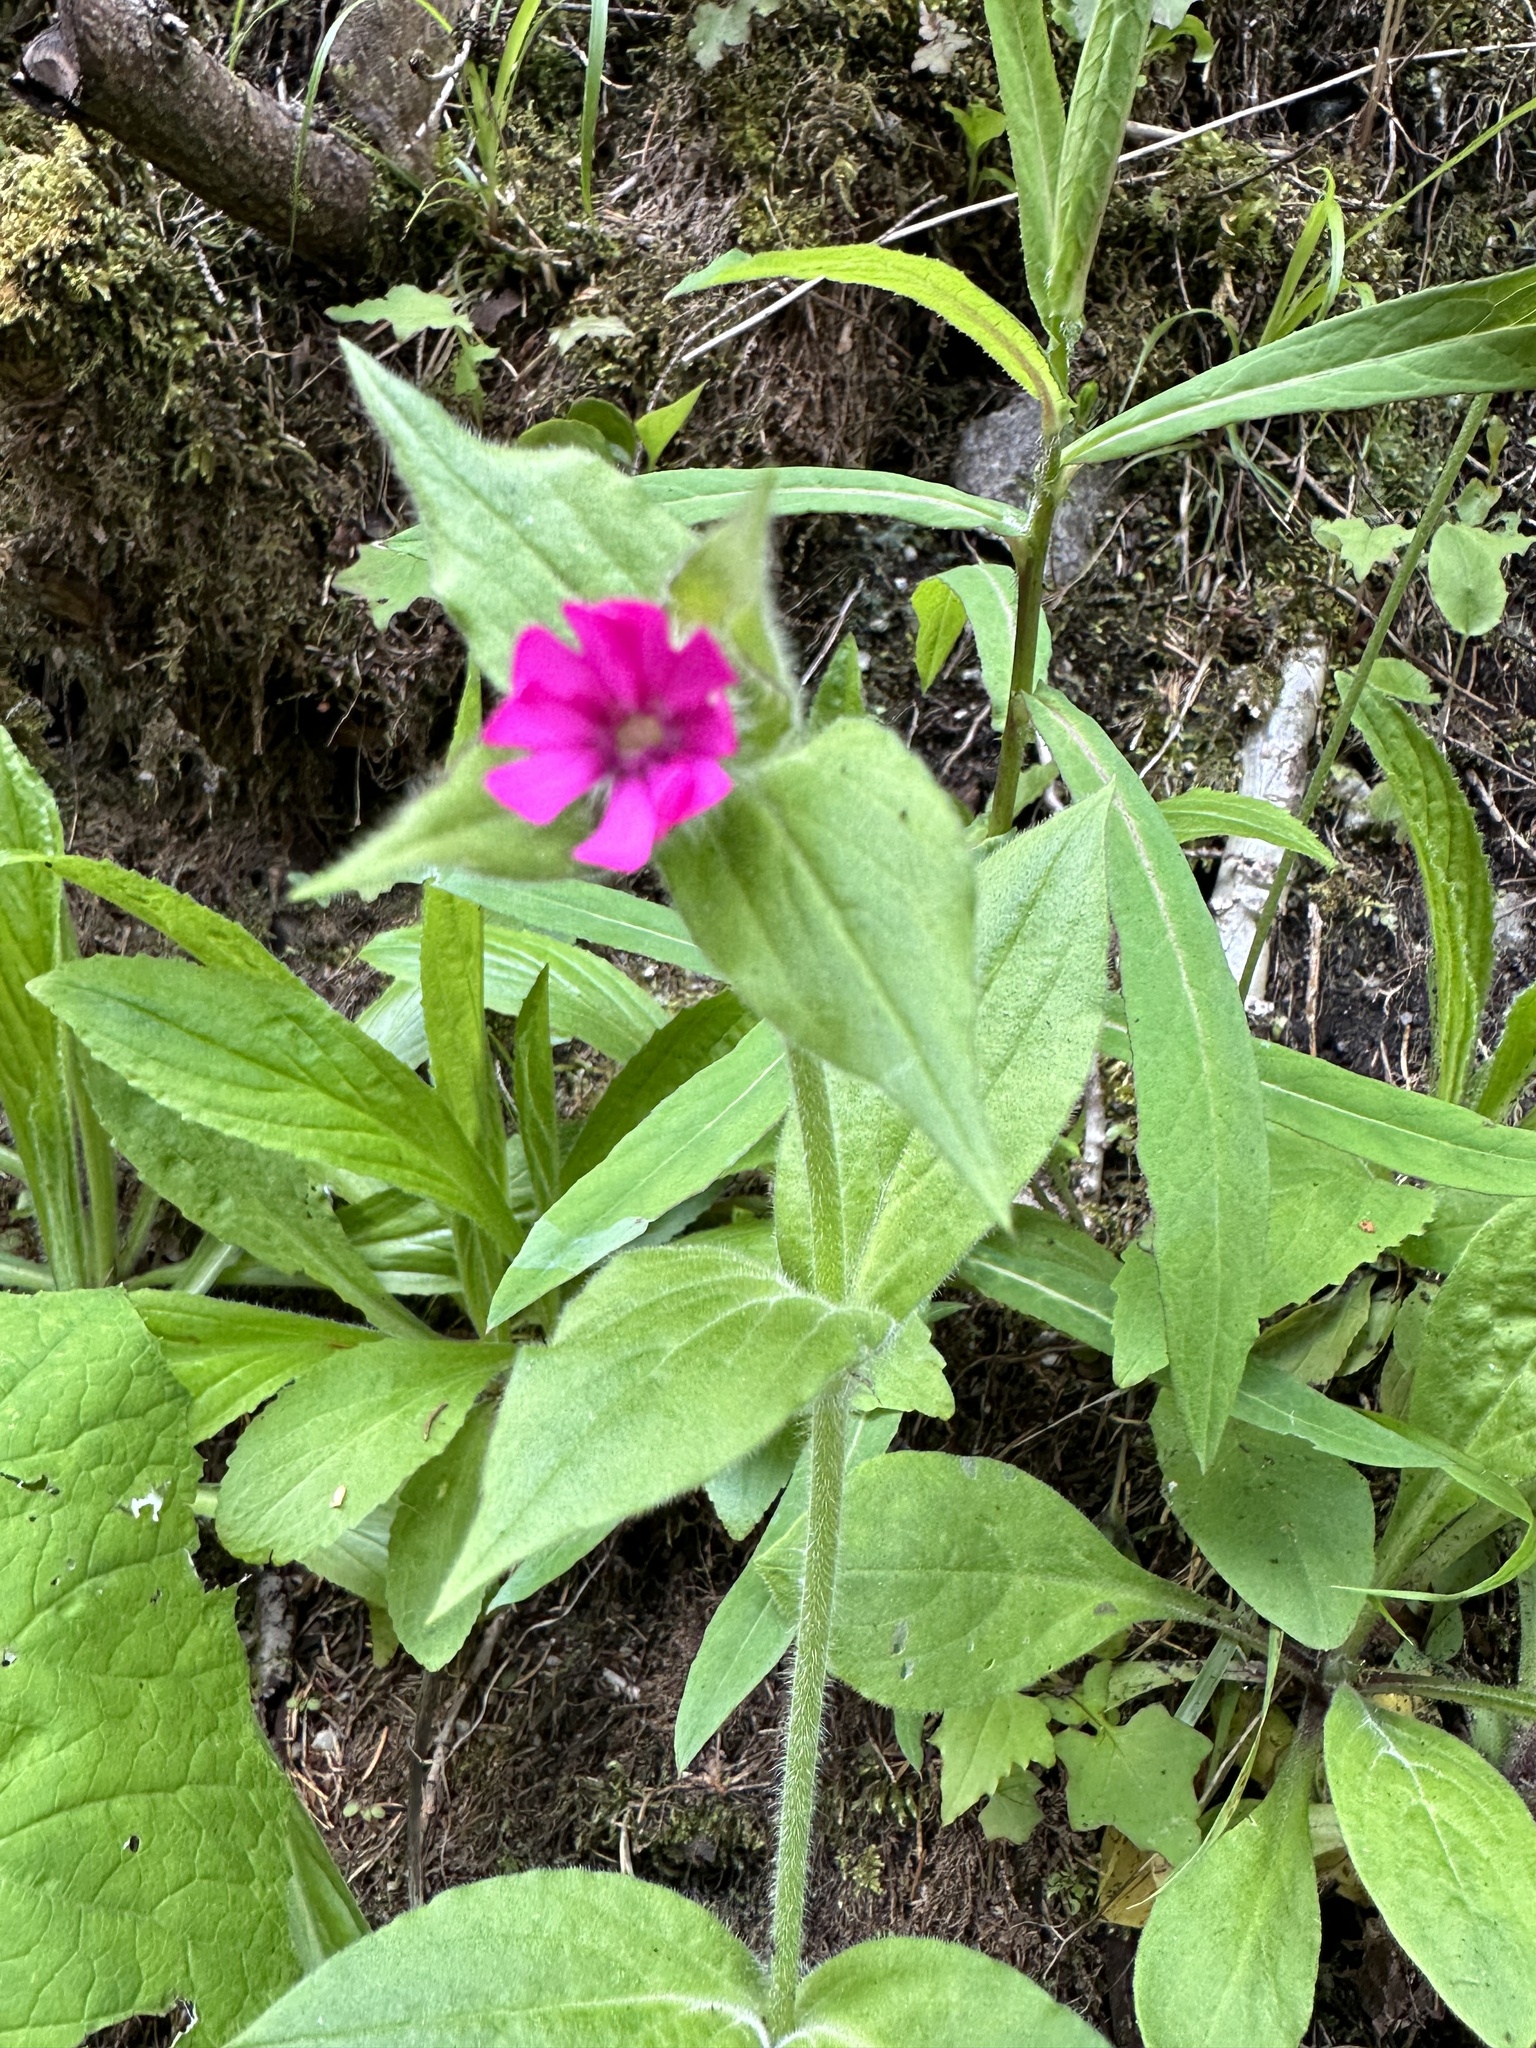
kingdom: Plantae
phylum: Tracheophyta
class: Magnoliopsida
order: Caryophyllales
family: Caryophyllaceae
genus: Silene
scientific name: Silene dioica
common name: Red campion
